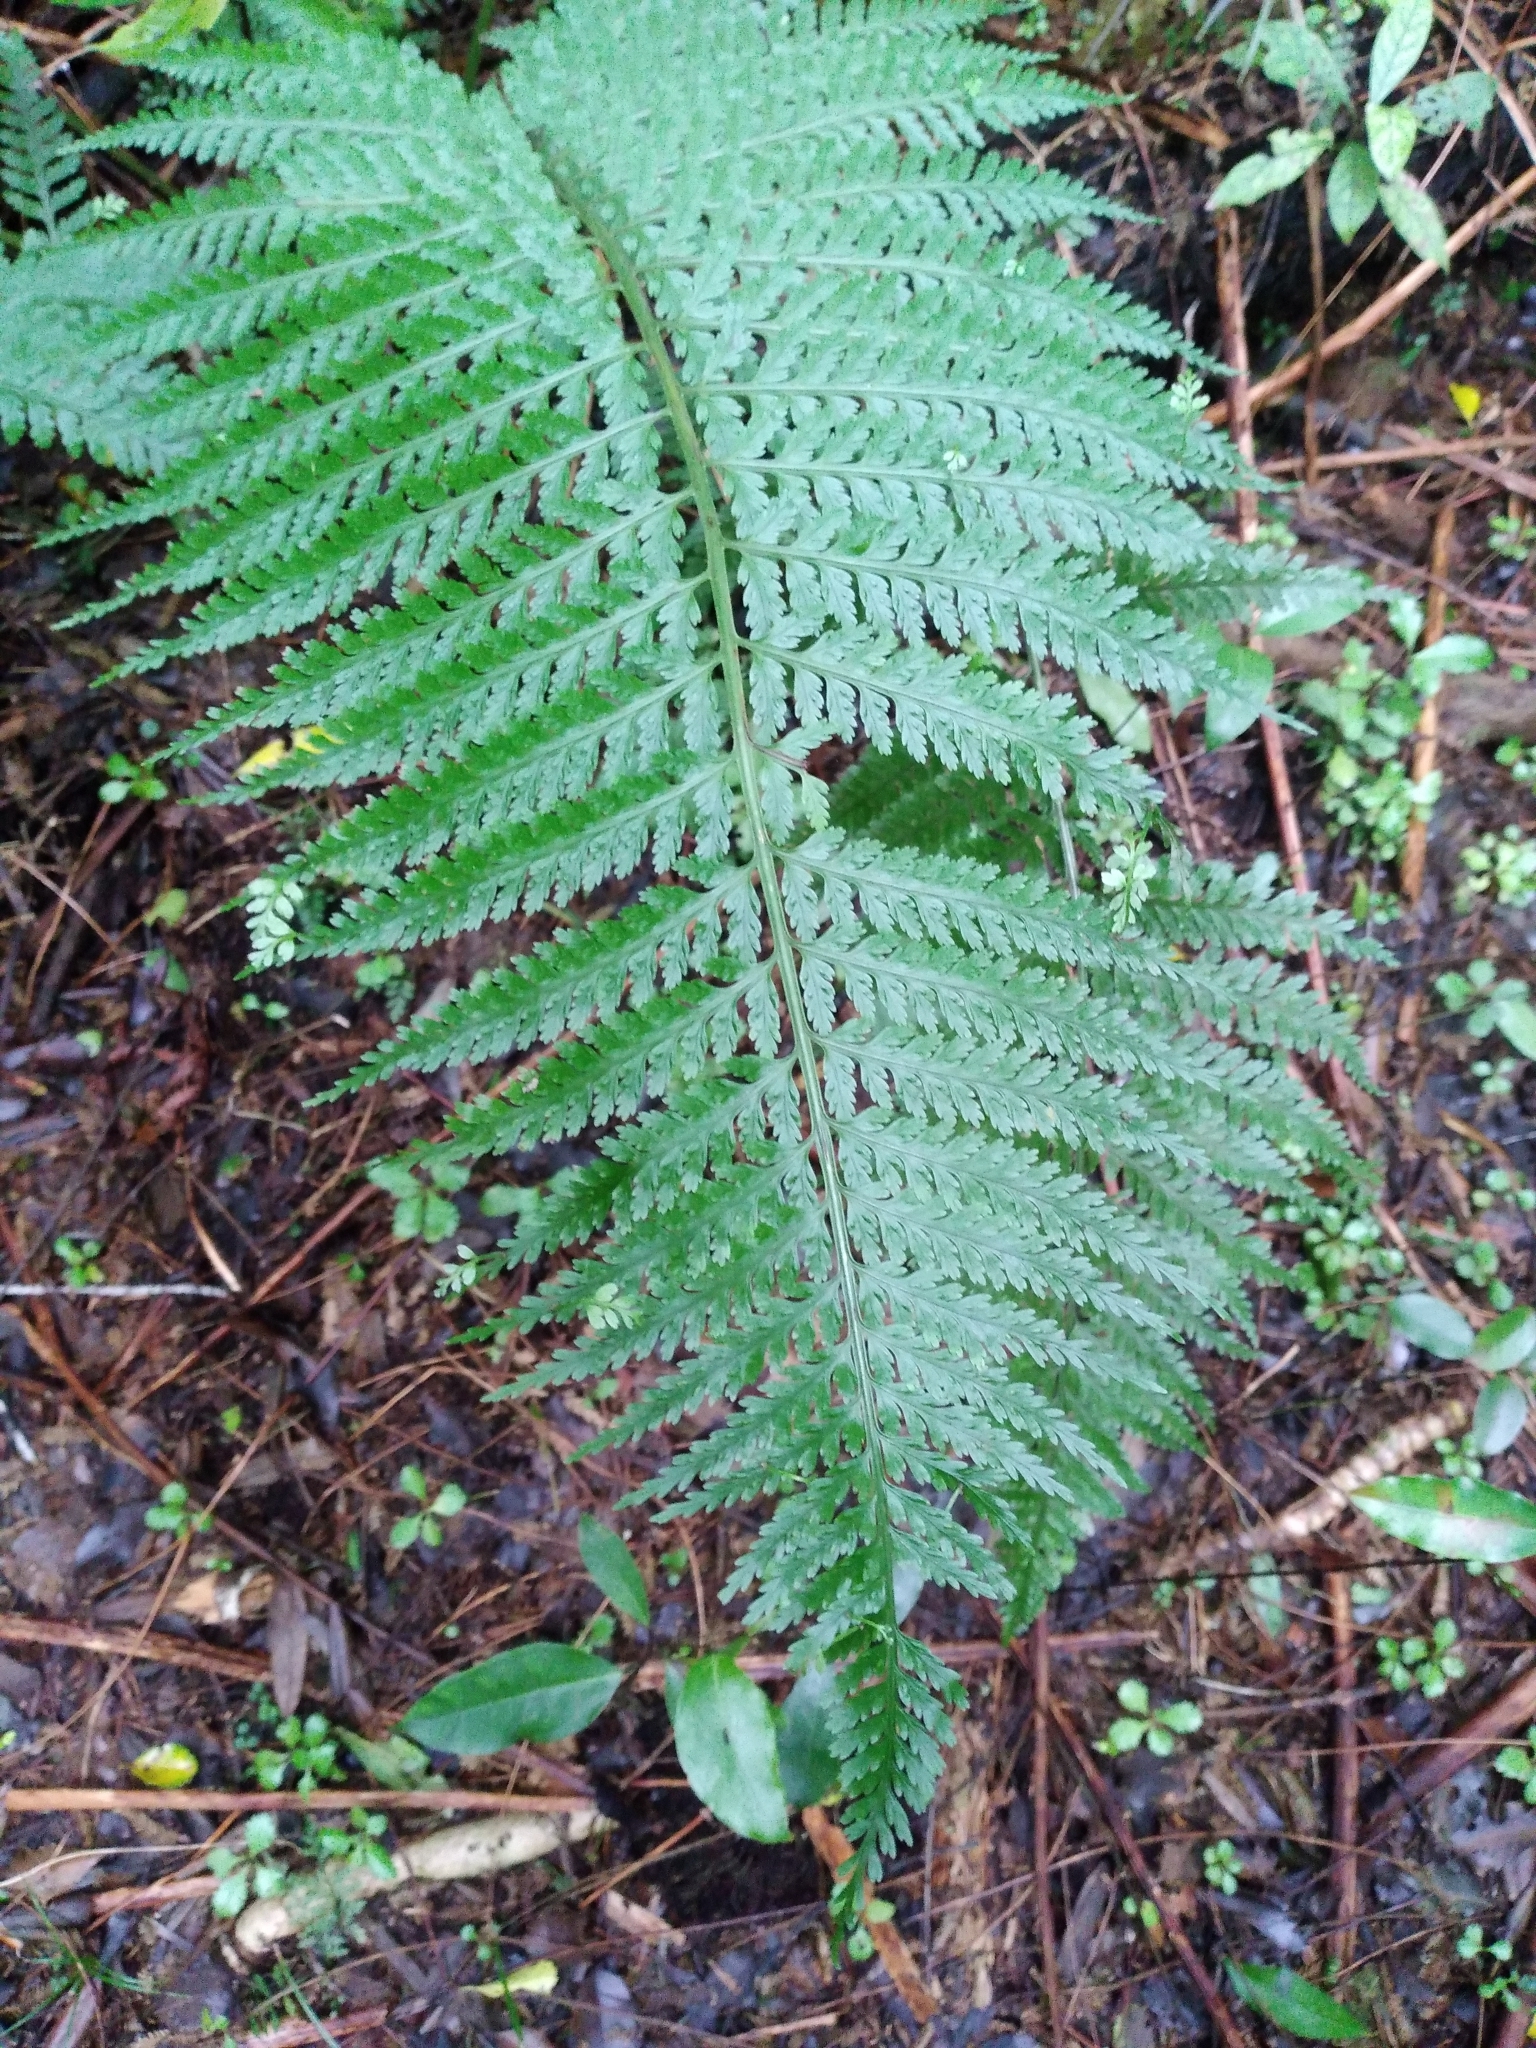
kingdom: Plantae
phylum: Tracheophyta
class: Polypodiopsida
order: Polypodiales
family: Aspleniaceae
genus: Asplenium
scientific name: Asplenium bulbiferum
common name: Mother fern
